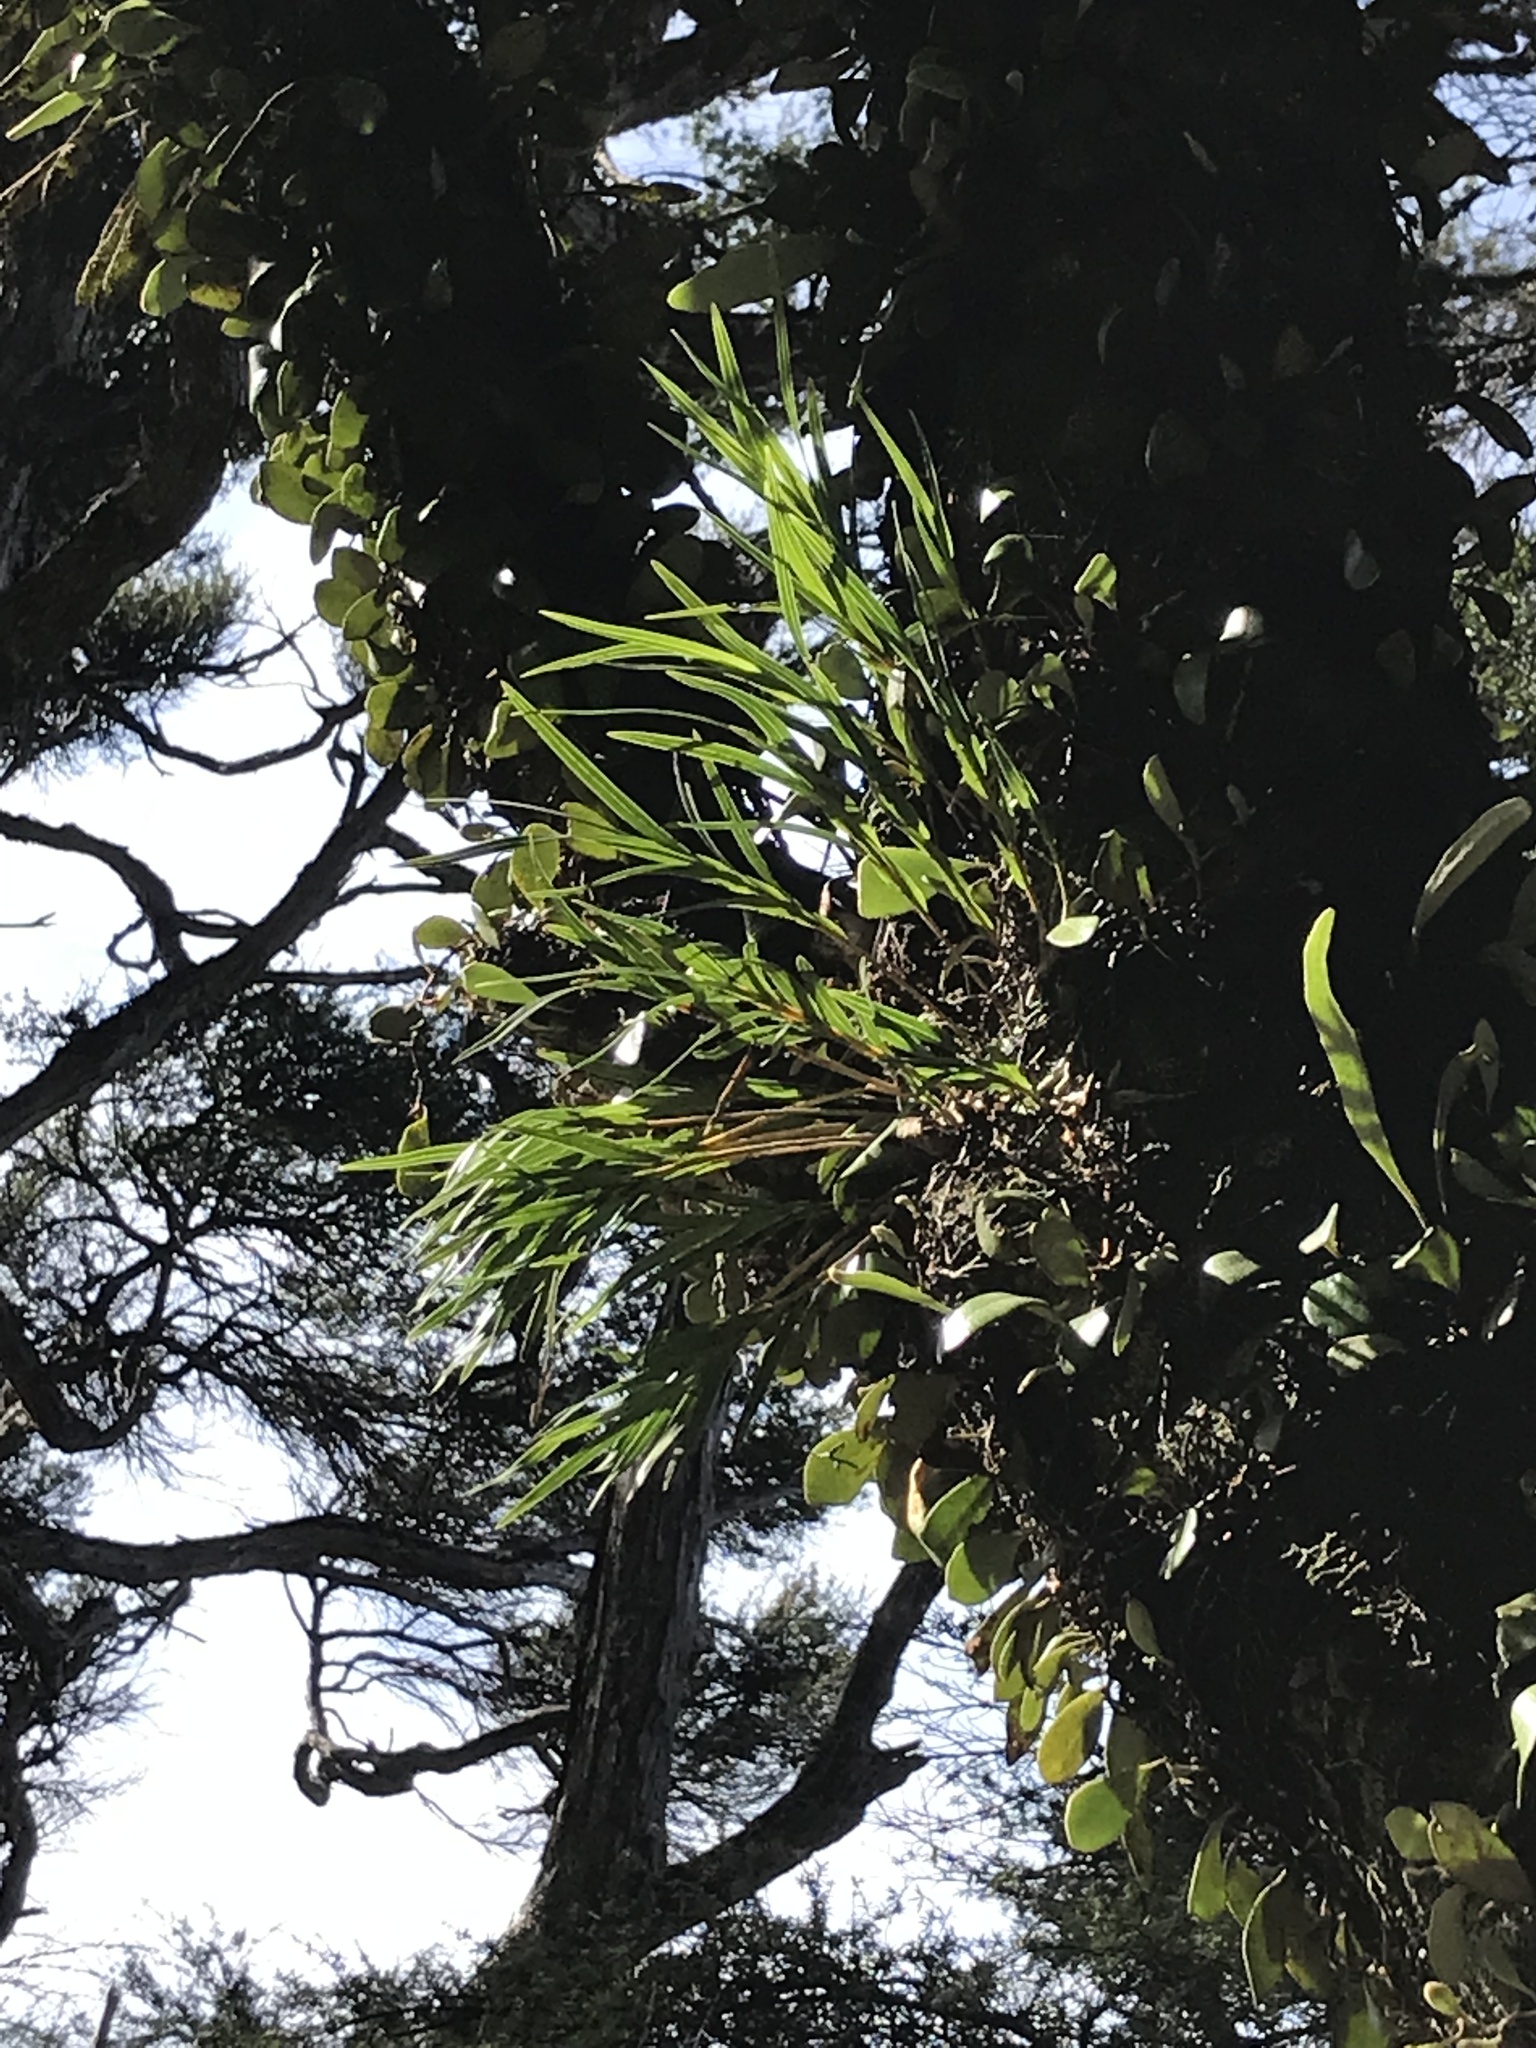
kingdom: Plantae
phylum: Tracheophyta
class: Liliopsida
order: Asparagales
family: Orchidaceae
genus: Earina
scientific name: Earina mucronata
